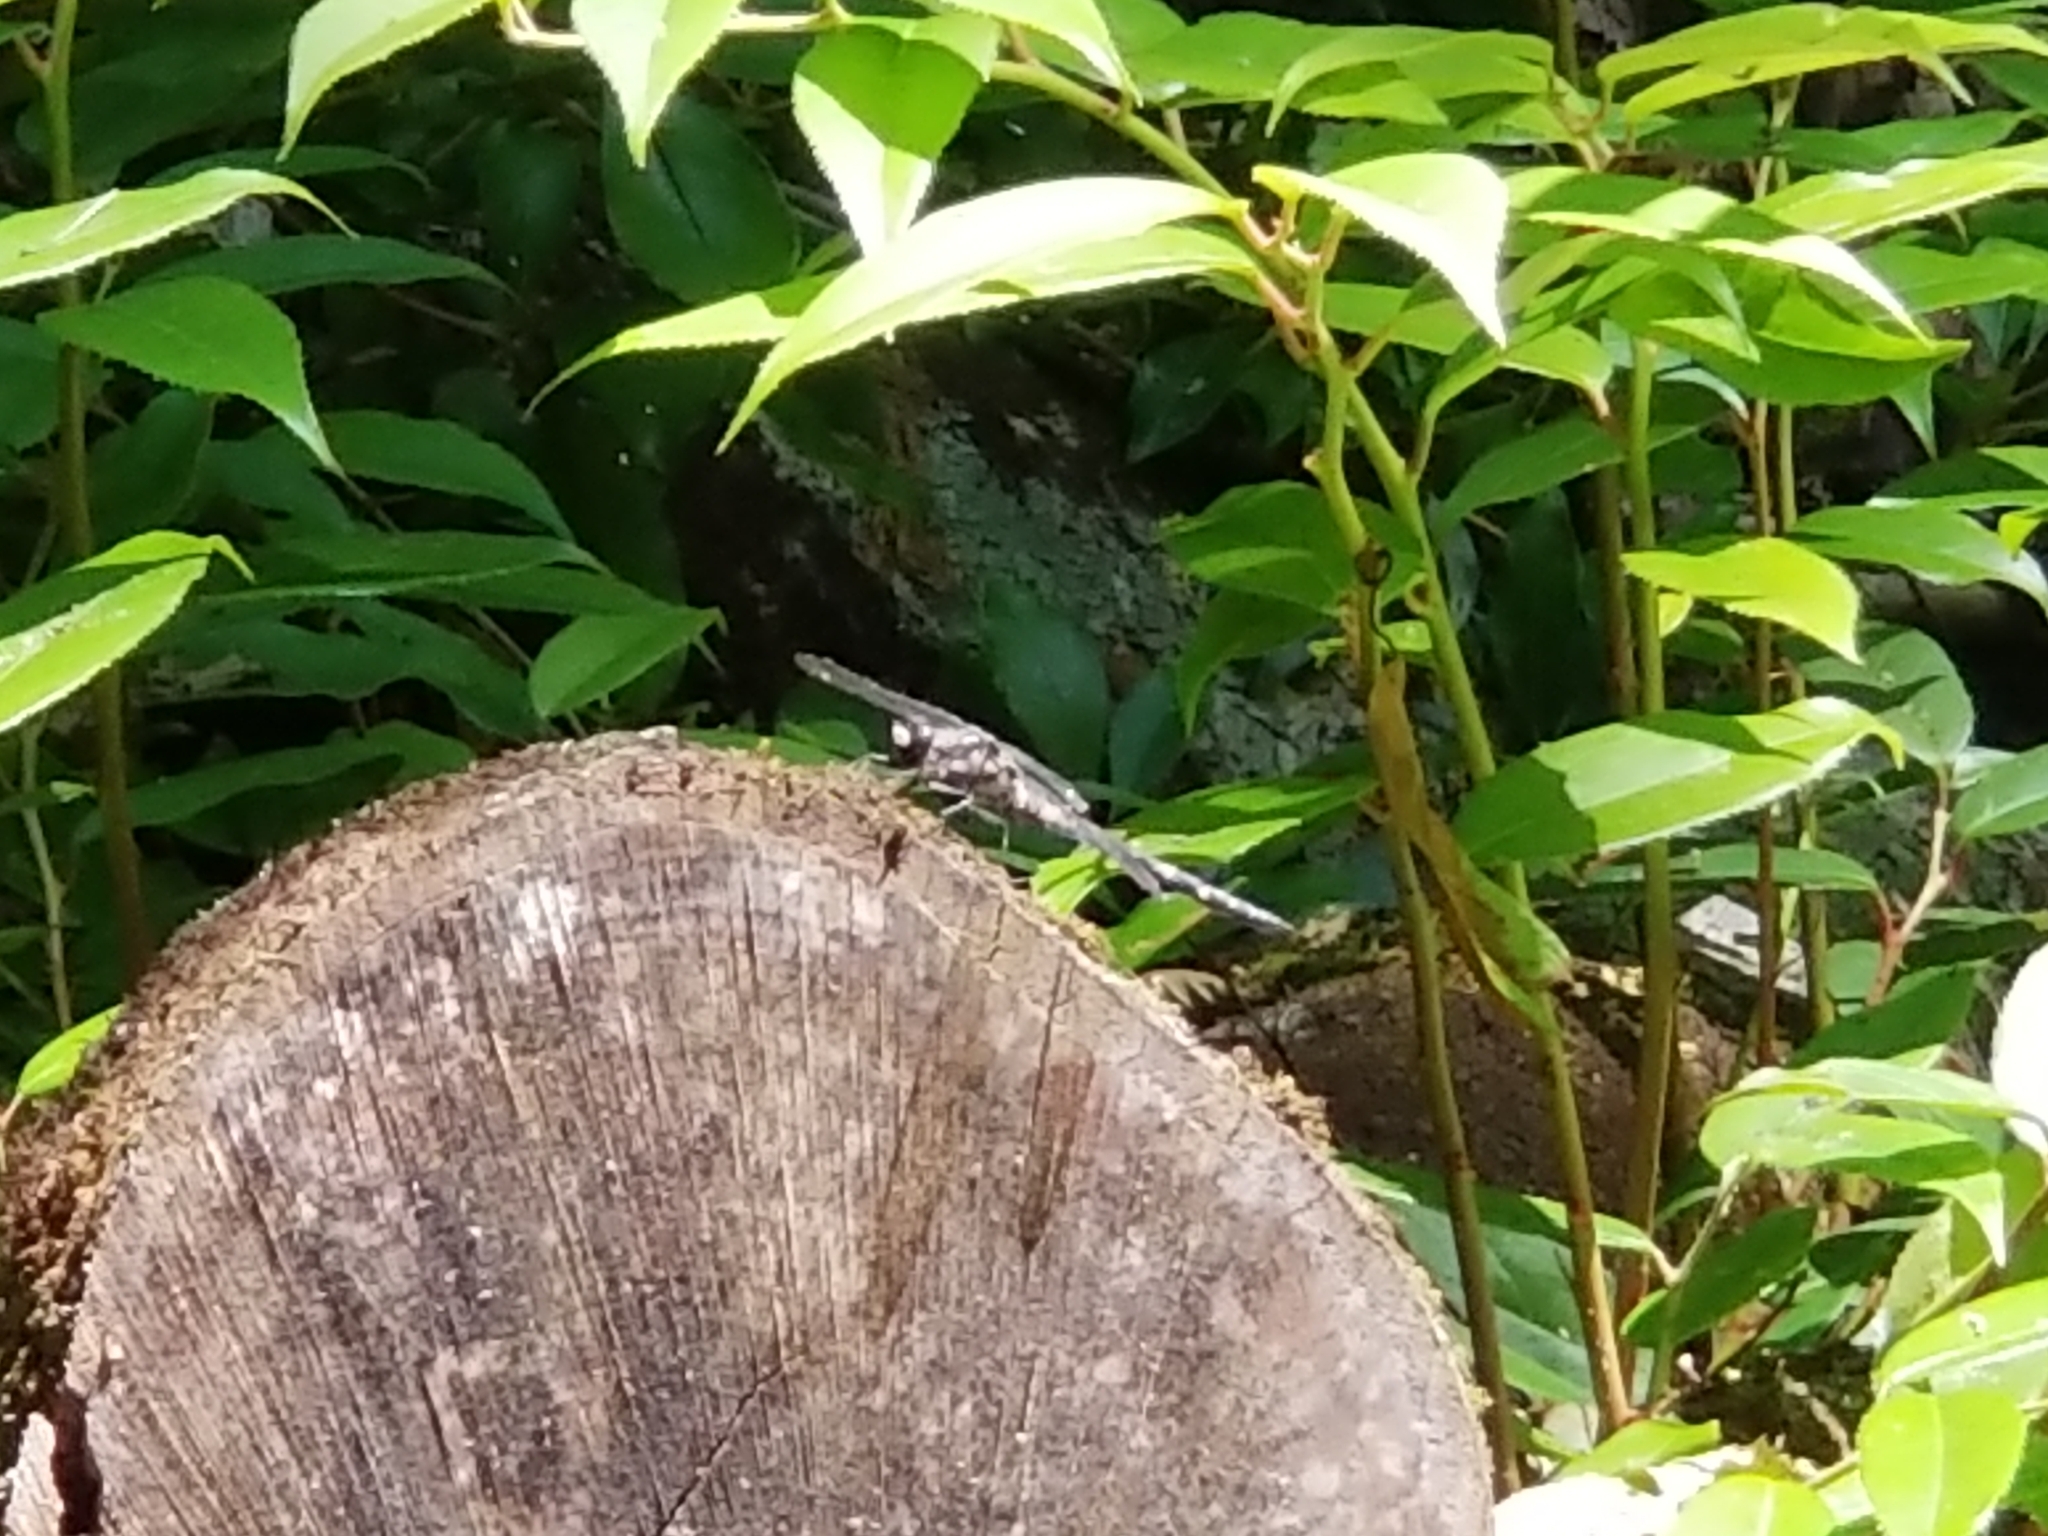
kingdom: Animalia
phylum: Arthropoda
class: Insecta
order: Odonata
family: Petaluridae
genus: Tachopteryx
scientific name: Tachopteryx thoreyi
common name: Gray petaltail
